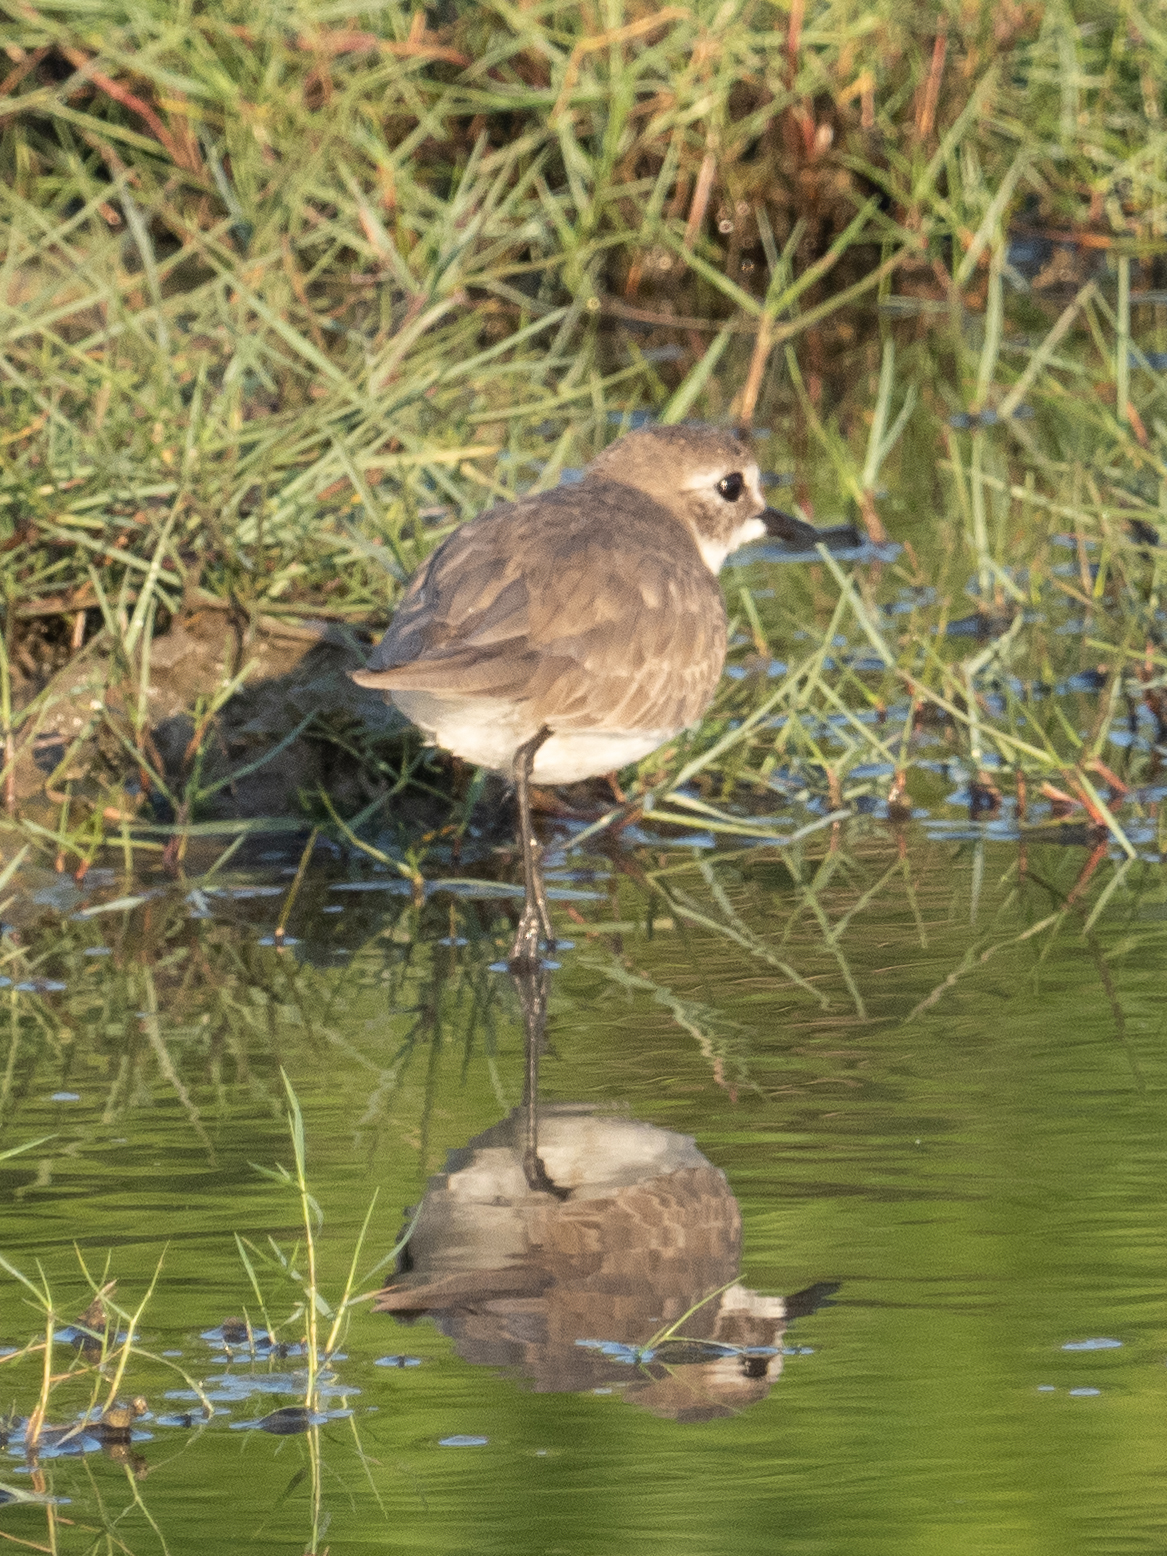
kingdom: Animalia
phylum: Chordata
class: Aves
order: Charadriiformes
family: Charadriidae
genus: Anarhynchus
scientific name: Anarhynchus
